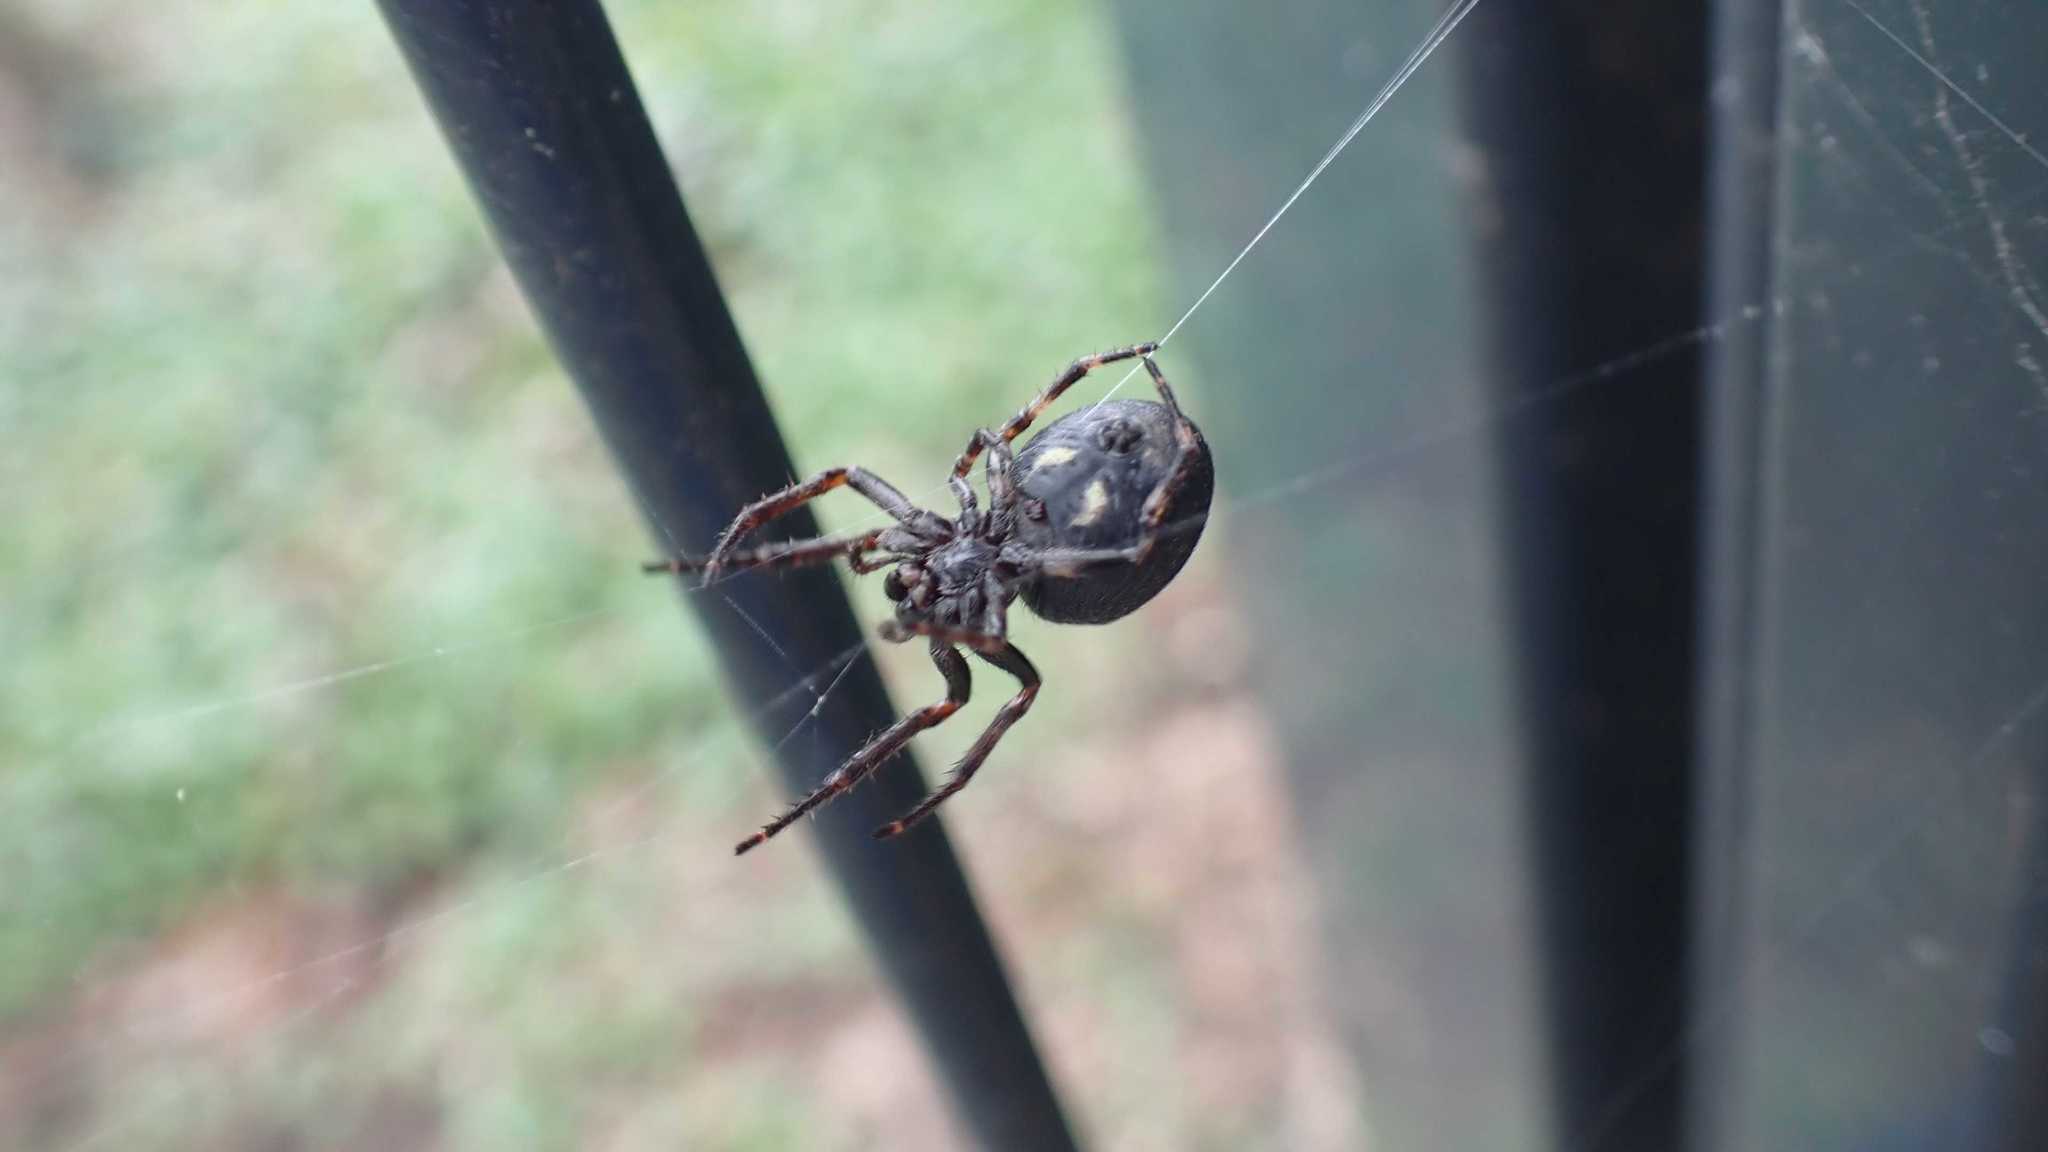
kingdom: Animalia
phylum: Arthropoda
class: Arachnida
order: Araneae
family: Araneidae
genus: Nuctenea
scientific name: Nuctenea umbratica
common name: Toad spider
